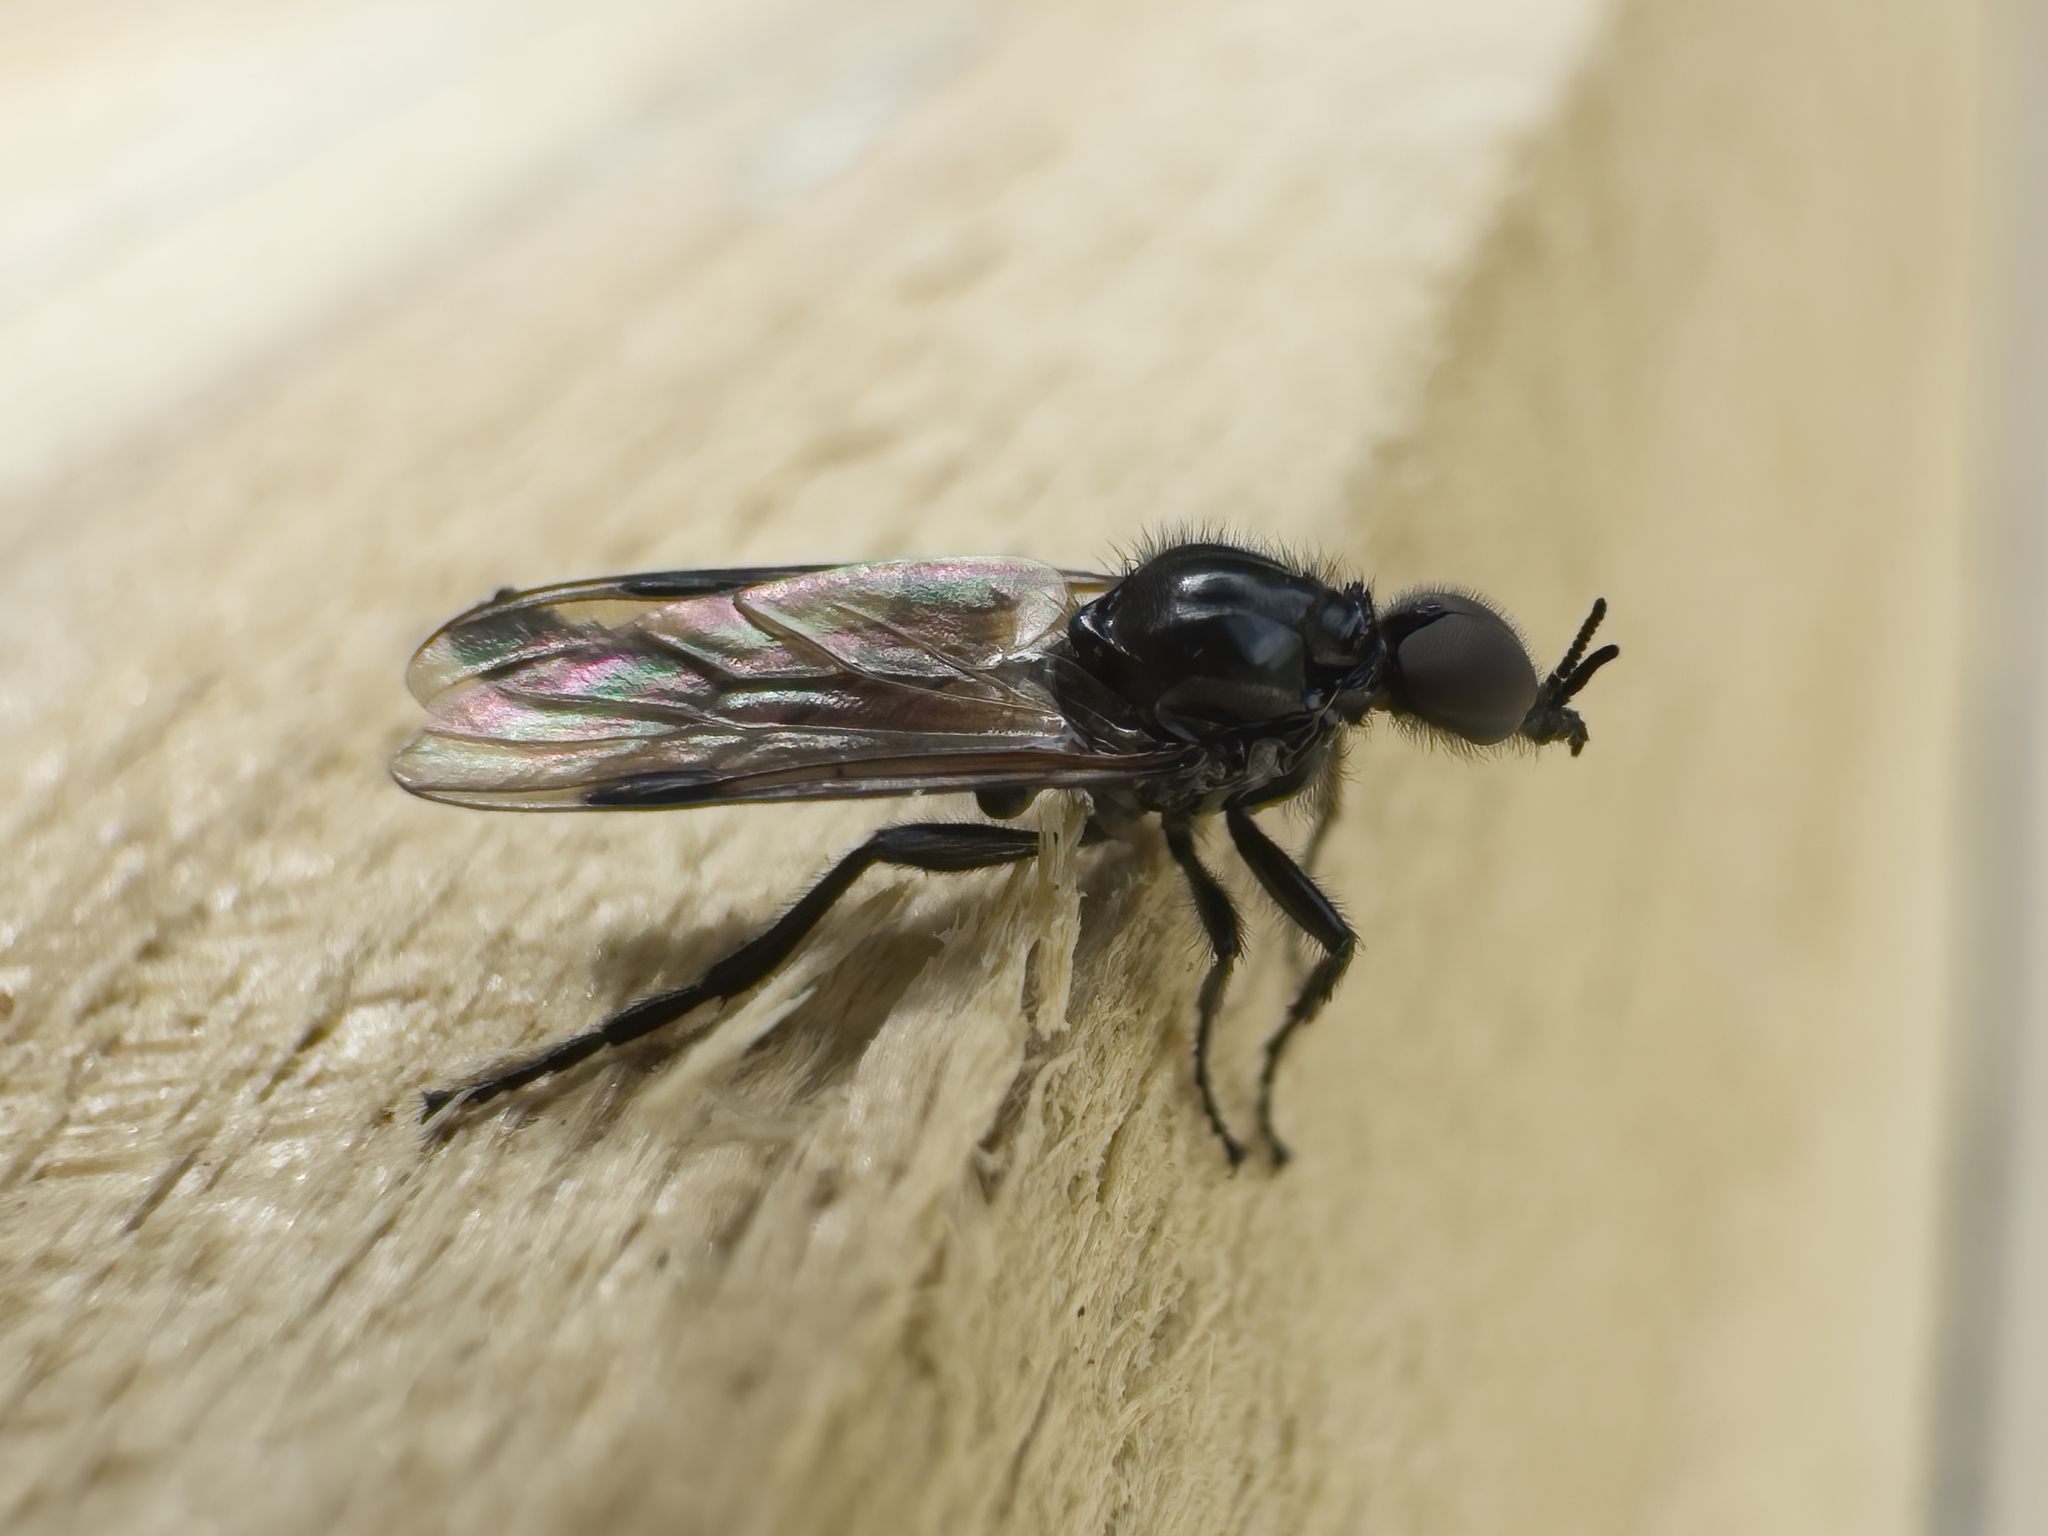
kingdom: Animalia
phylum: Arthropoda
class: Insecta
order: Diptera
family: Bibionidae
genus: Dilophus
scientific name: Dilophus nigrostigma
